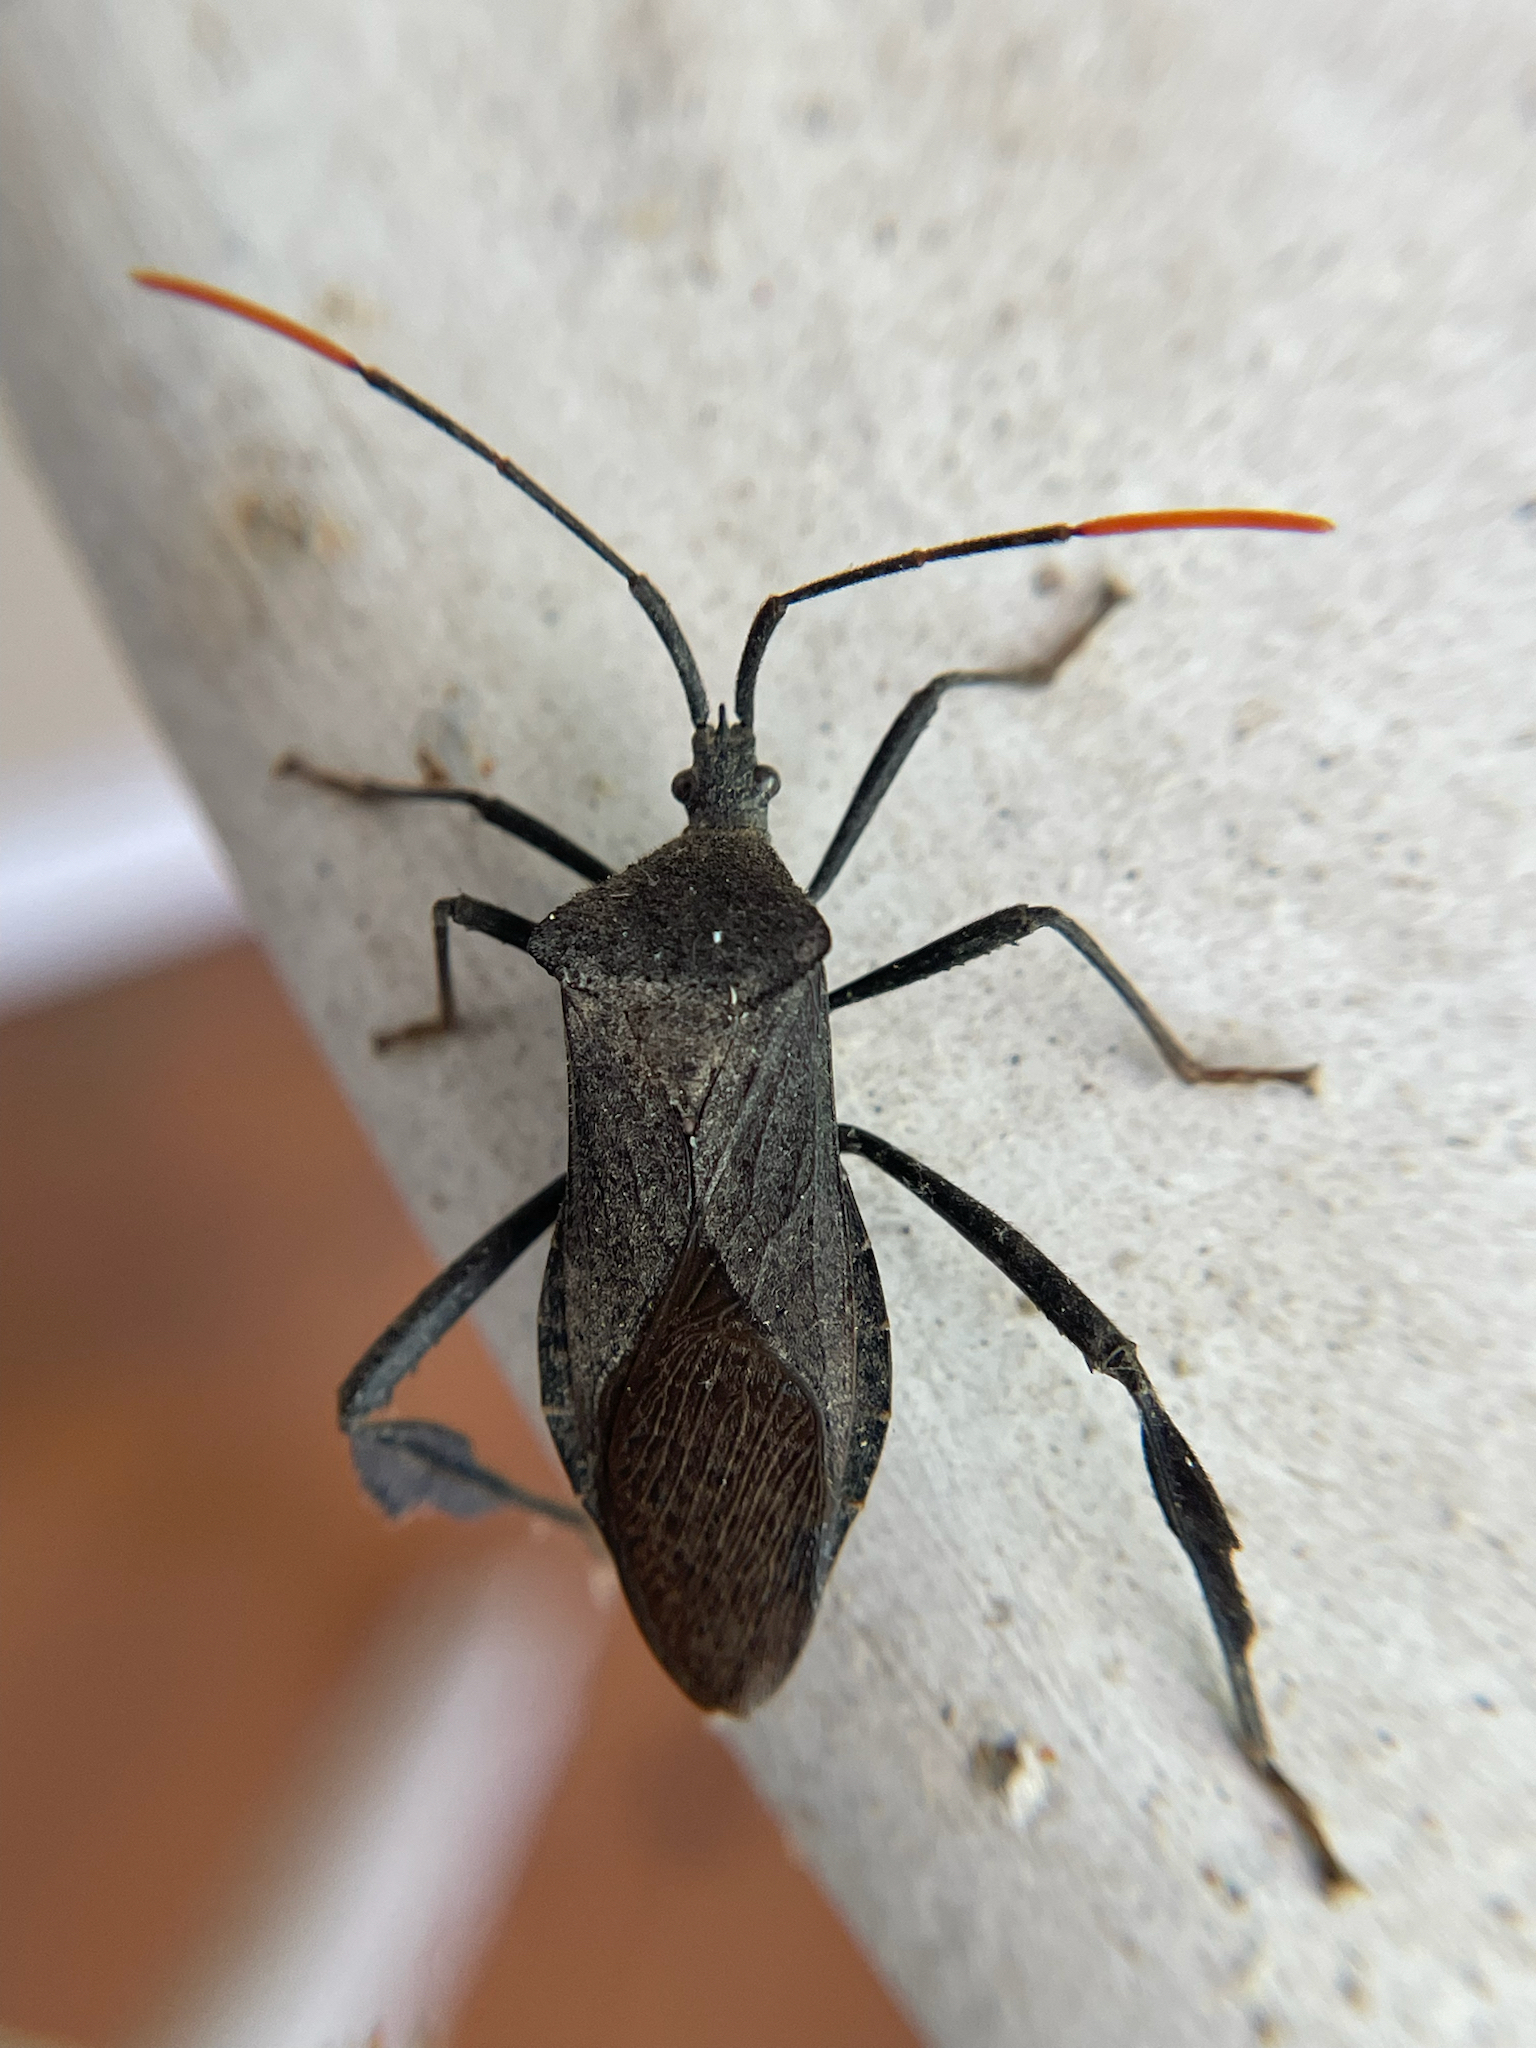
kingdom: Animalia
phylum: Arthropoda
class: Insecta
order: Hemiptera
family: Coreidae
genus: Acanthocephala
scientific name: Acanthocephala terminalis
